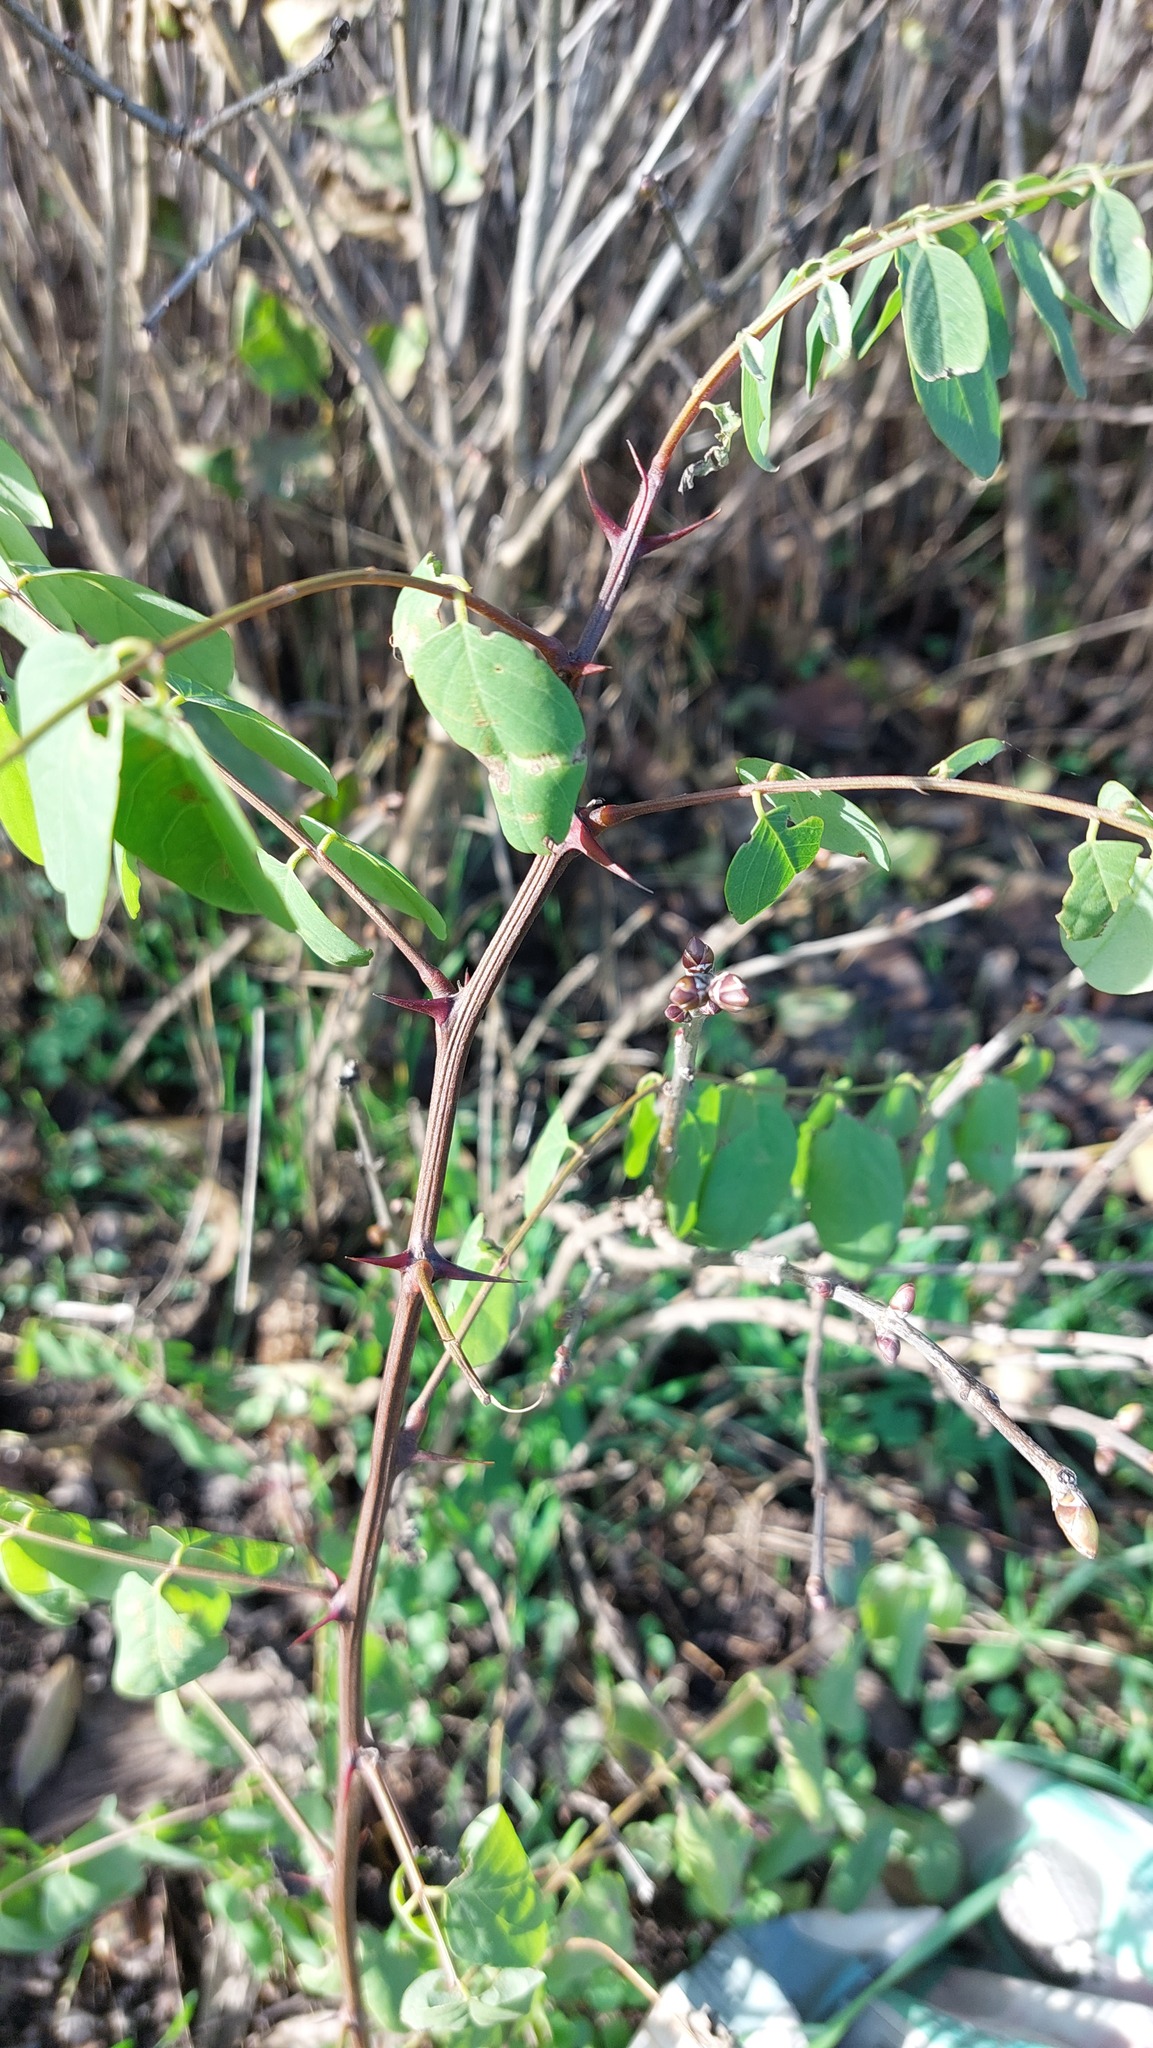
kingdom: Plantae
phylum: Tracheophyta
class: Magnoliopsida
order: Fabales
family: Fabaceae
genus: Robinia
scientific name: Robinia pseudoacacia
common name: Black locust
